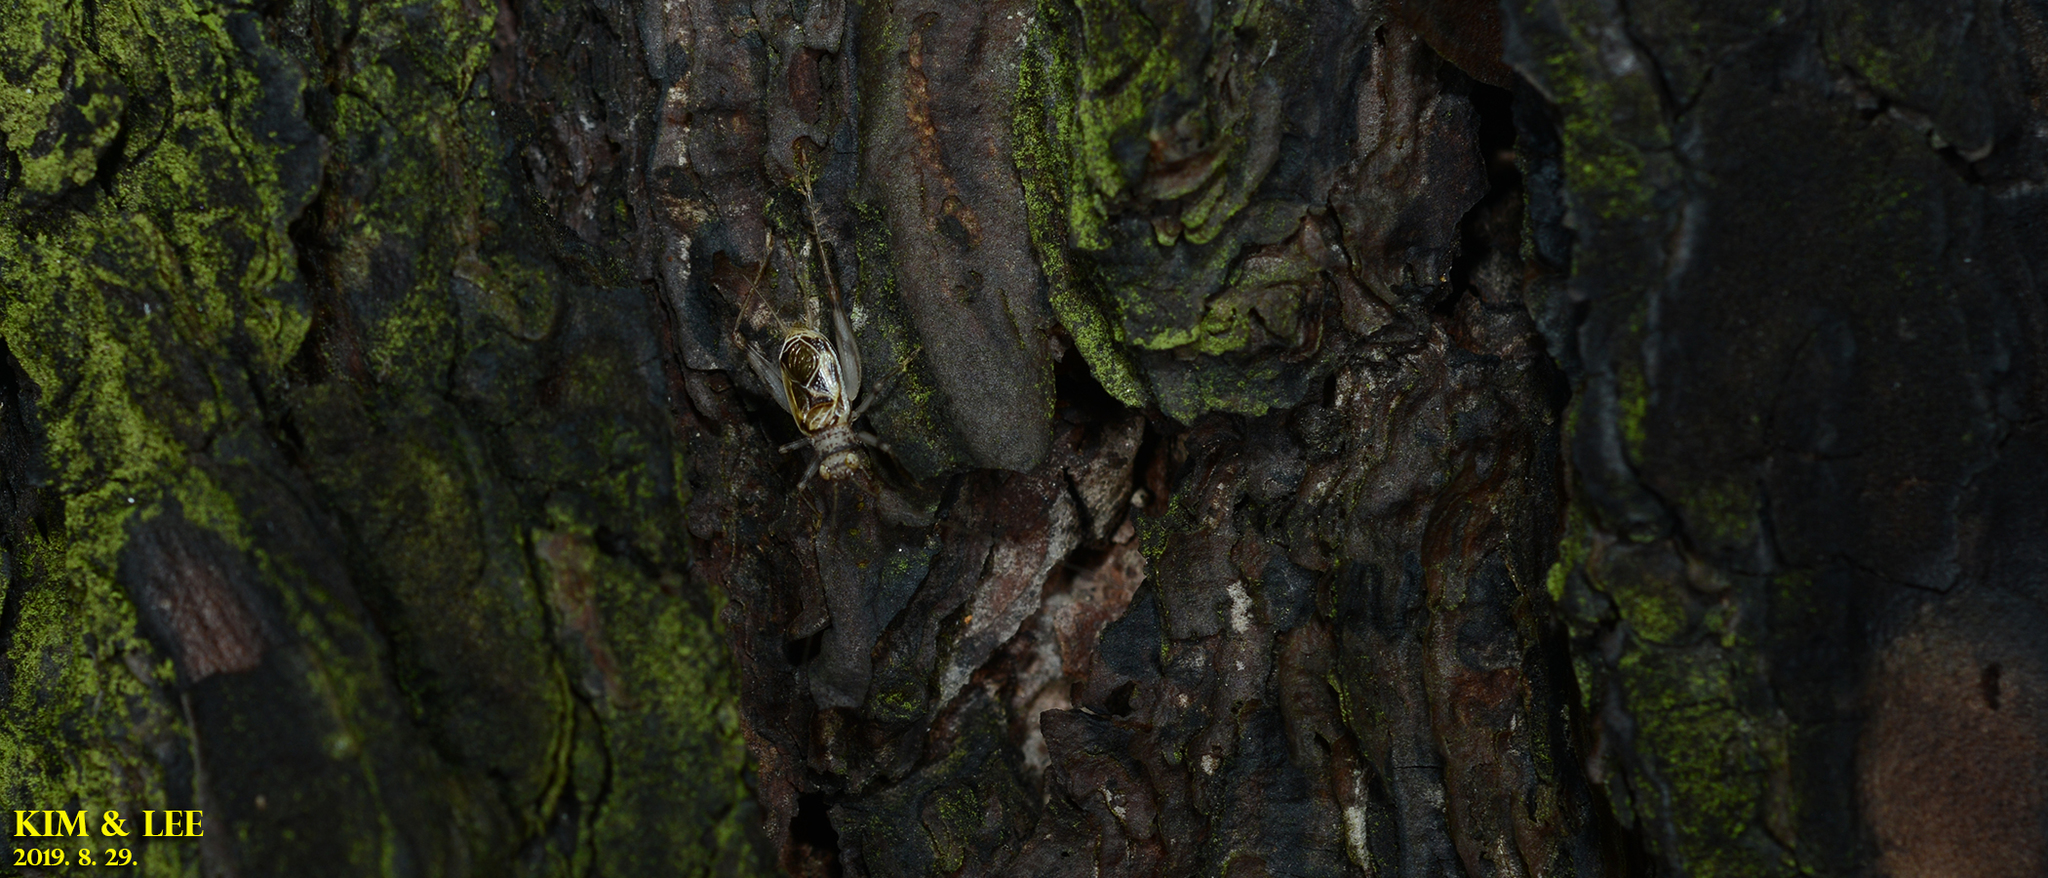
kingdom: Animalia
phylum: Arthropoda
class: Insecta
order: Orthoptera
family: Trigonidiidae
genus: Svistella
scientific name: Svistella bifasciata
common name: Gold bell
